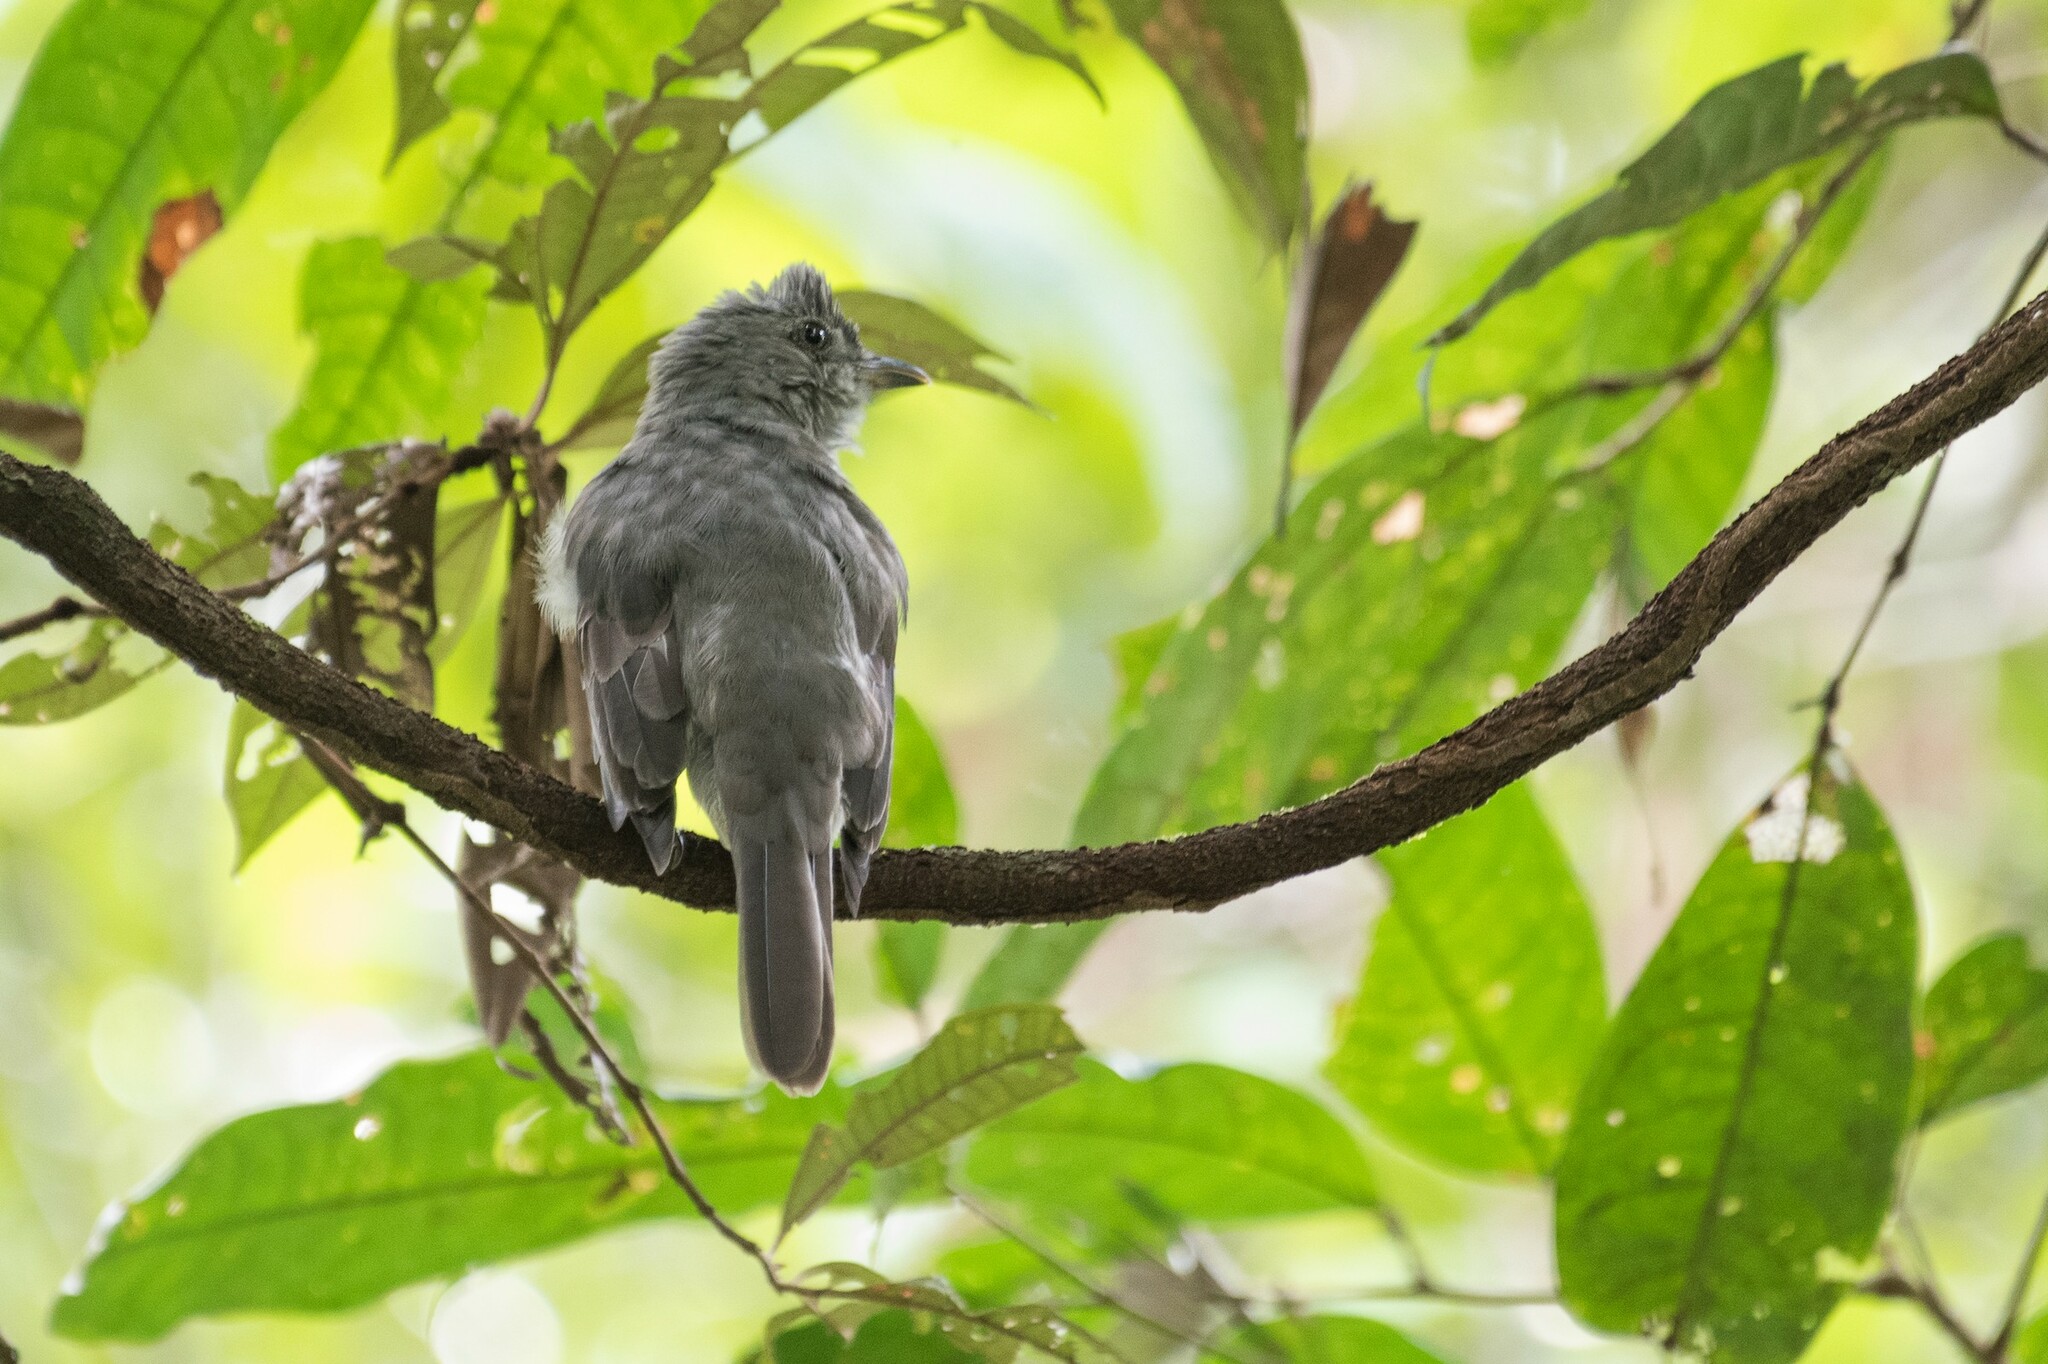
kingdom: Animalia
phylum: Chordata
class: Aves
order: Passeriformes
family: Cotingidae
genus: Lipaugus
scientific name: Lipaugus vociferans
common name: Screaming piha
